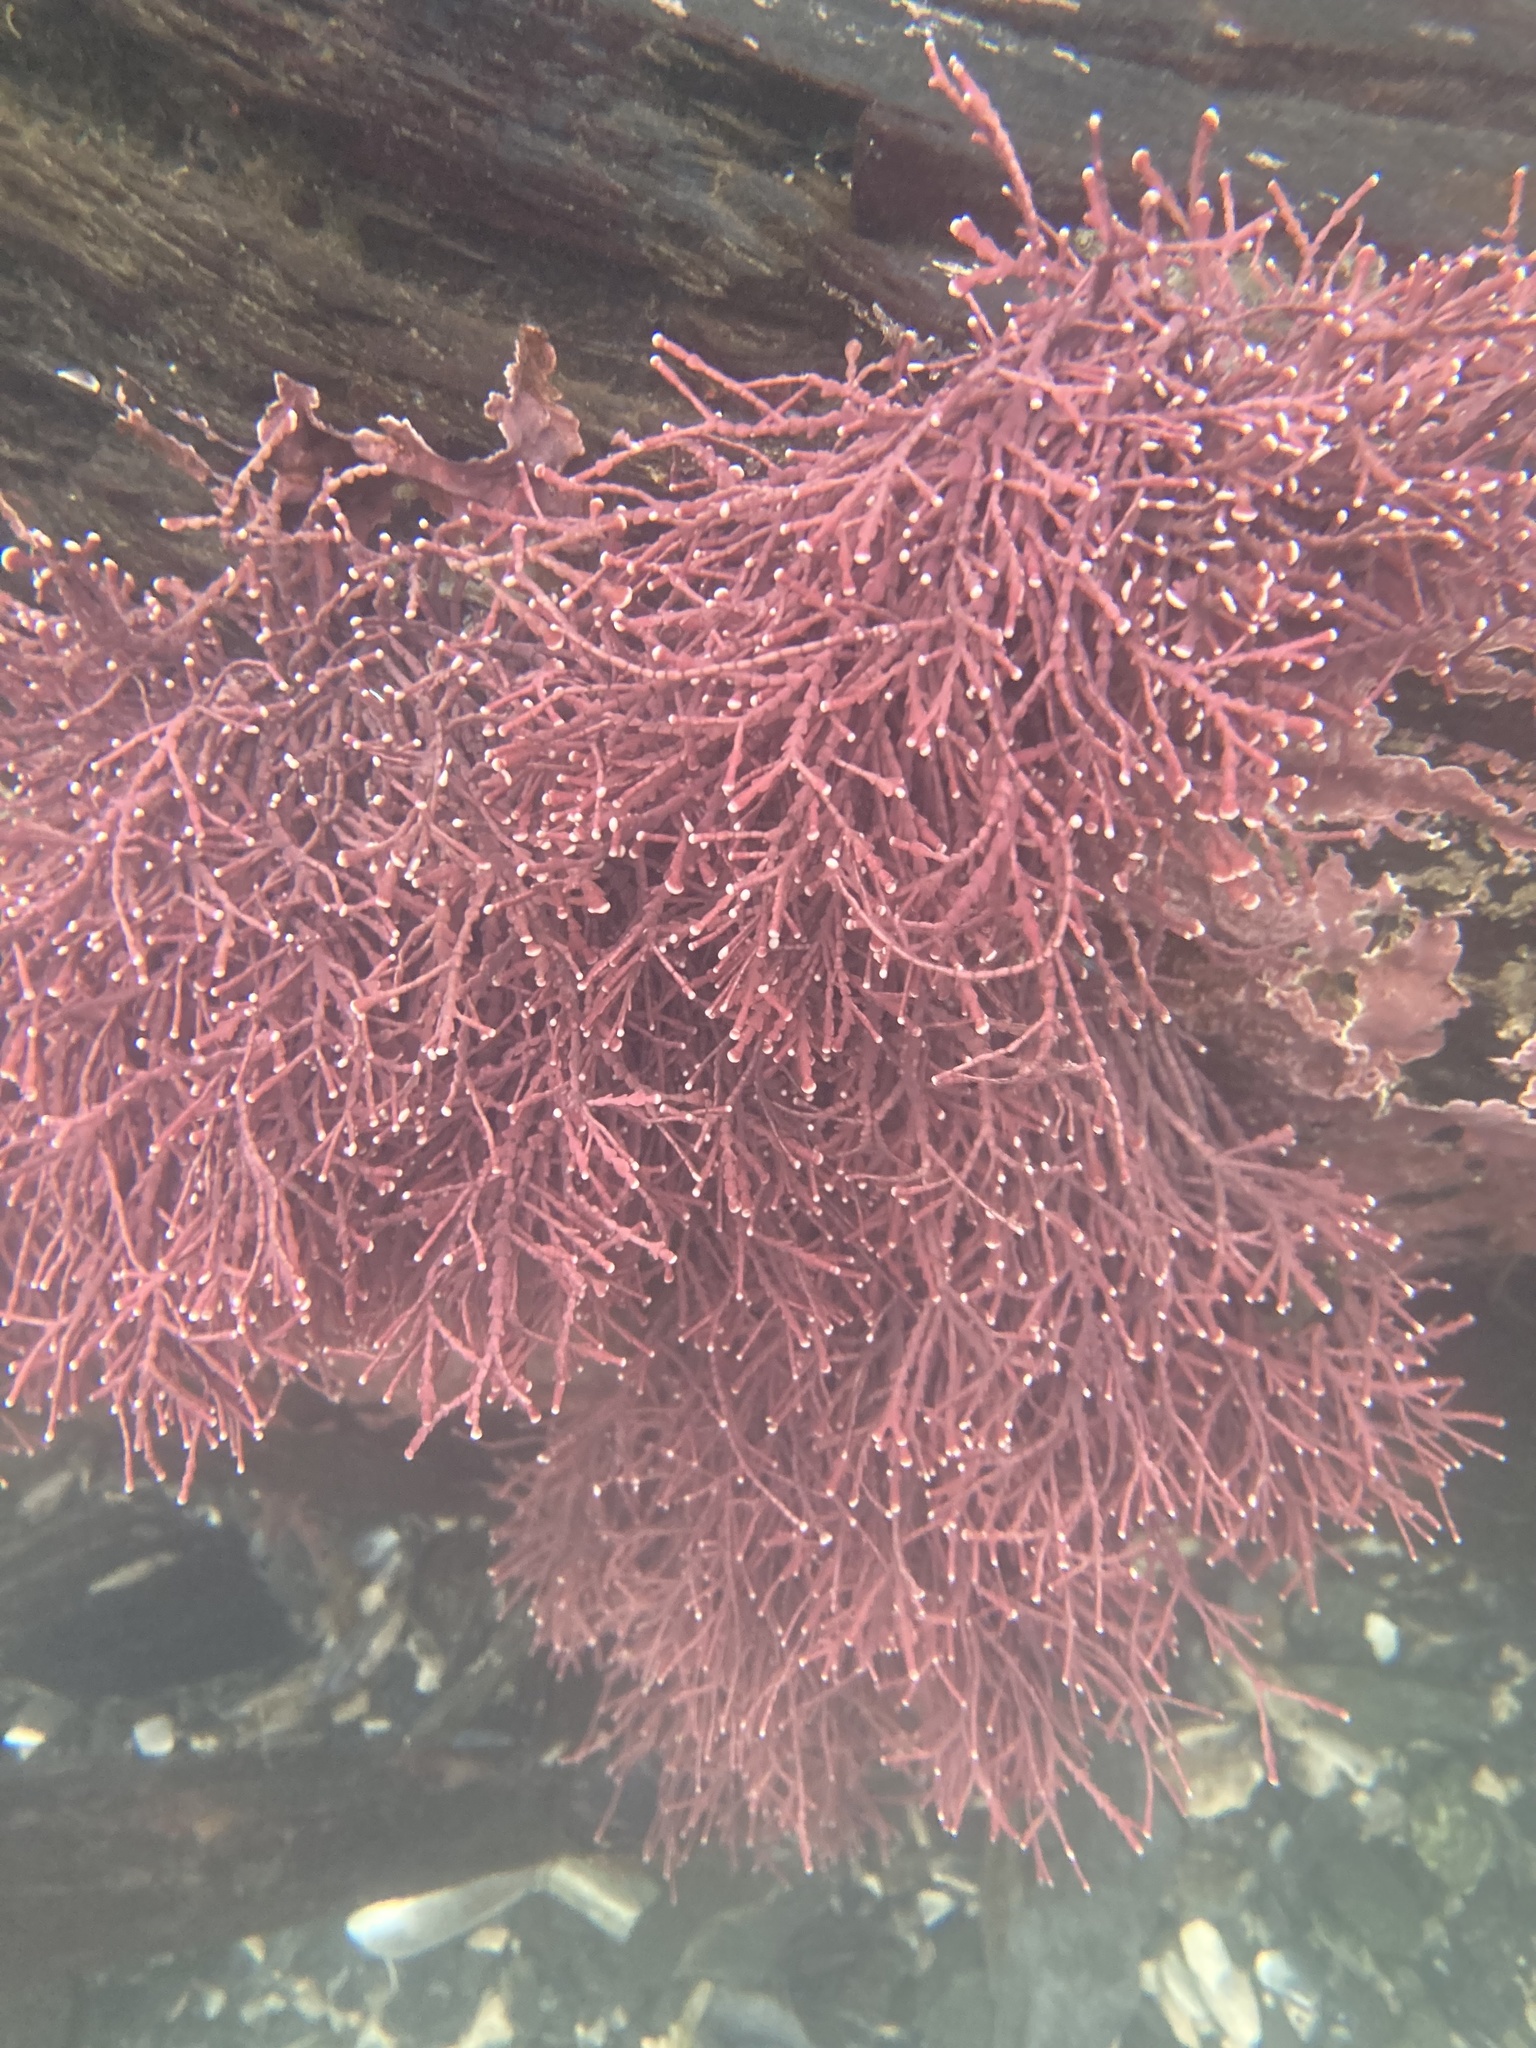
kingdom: Plantae
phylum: Rhodophyta
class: Florideophyceae
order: Corallinales
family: Corallinaceae
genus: Calliarthron
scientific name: Calliarthron tuberculosum
